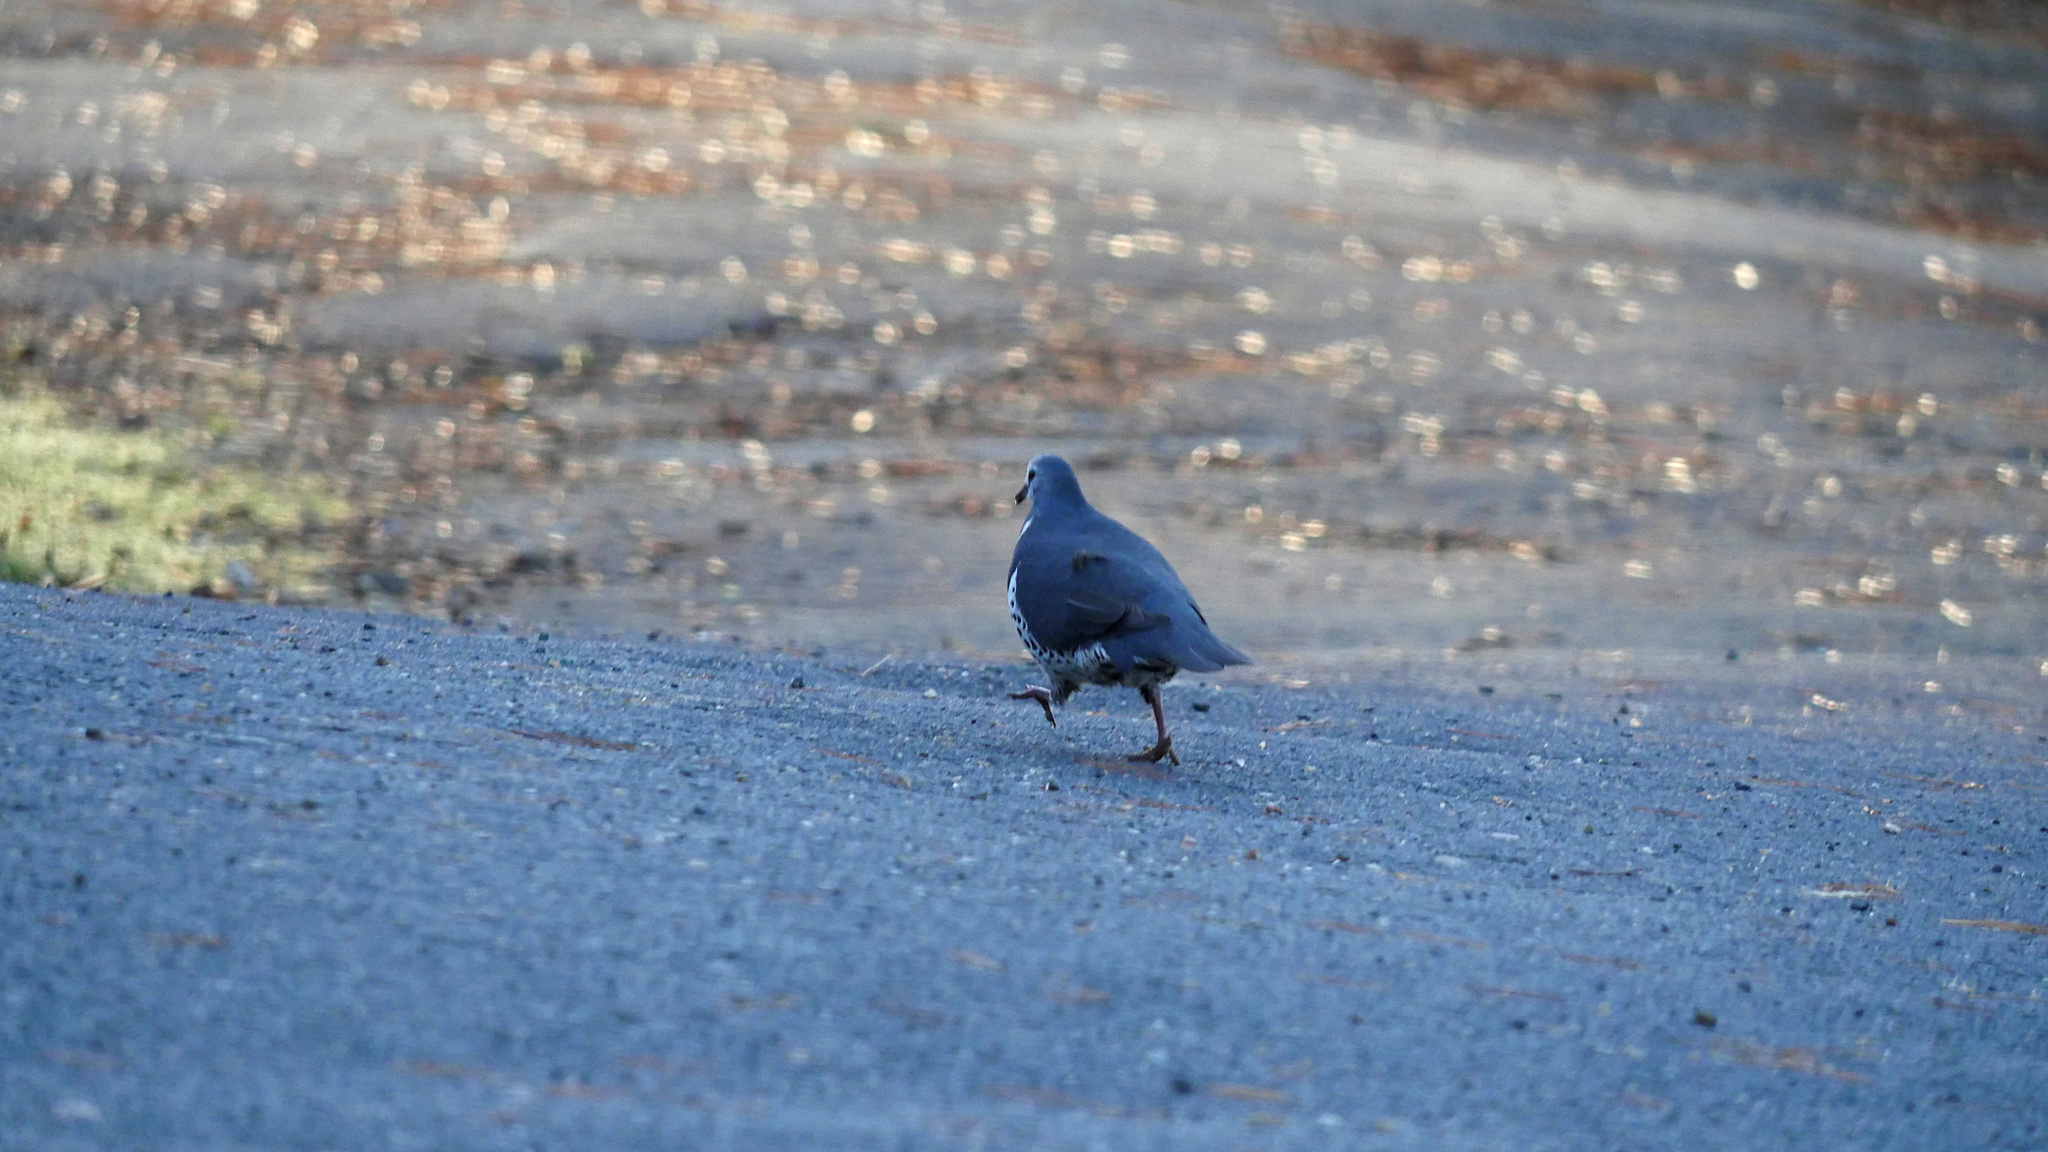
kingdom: Animalia
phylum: Chordata
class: Aves
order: Columbiformes
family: Columbidae
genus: Leucosarcia
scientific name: Leucosarcia melanoleuca
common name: Wonga pigeon
